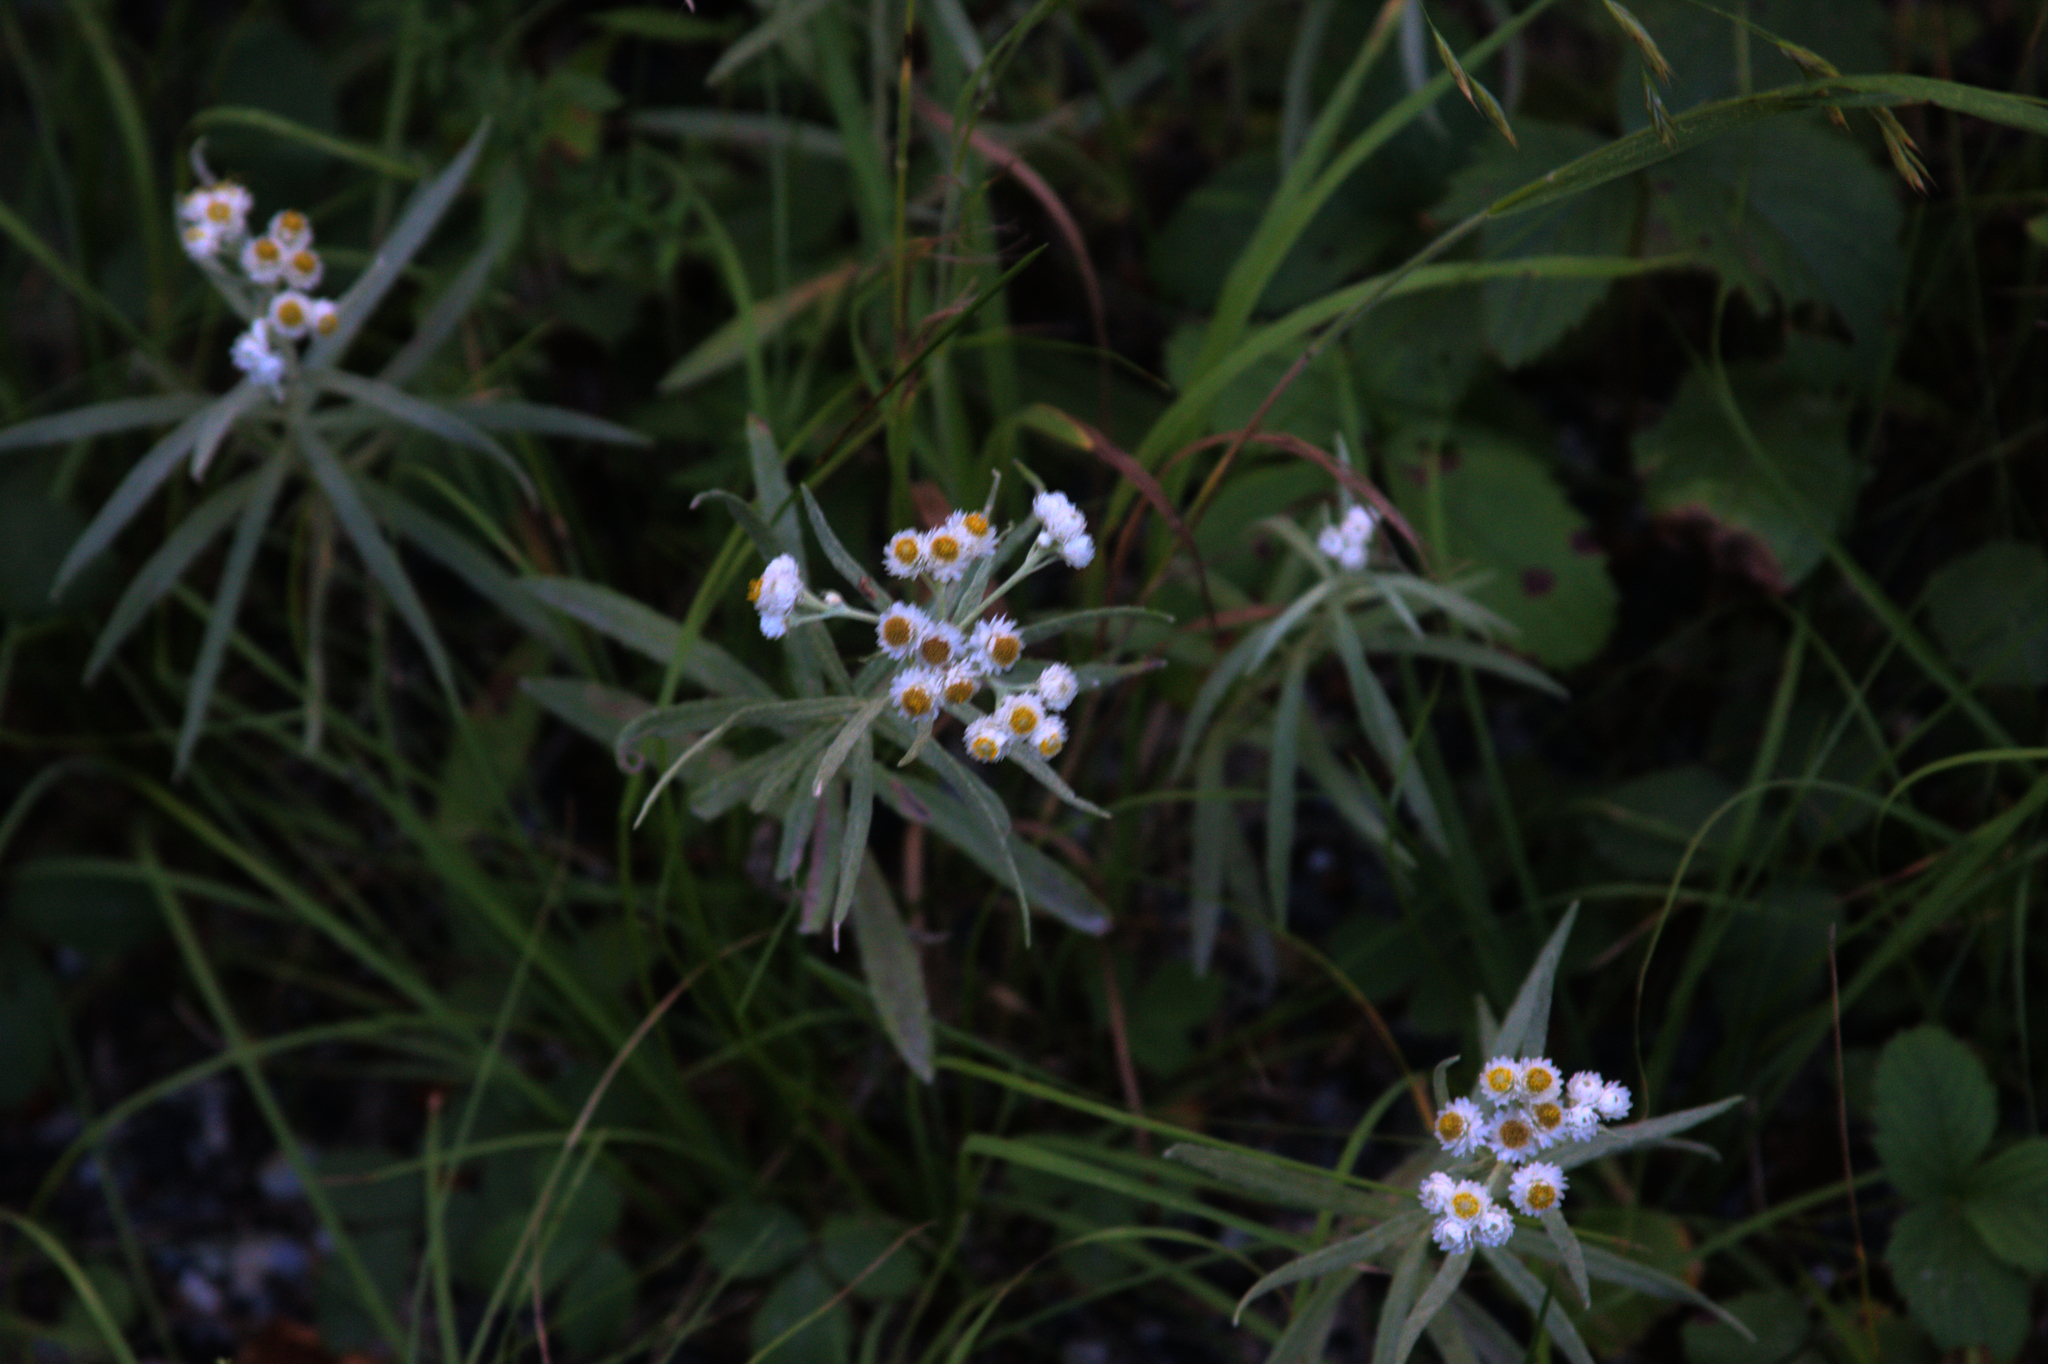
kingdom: Plantae
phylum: Tracheophyta
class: Magnoliopsida
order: Asterales
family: Asteraceae
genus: Anaphalis
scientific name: Anaphalis margaritacea
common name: Pearly everlasting
